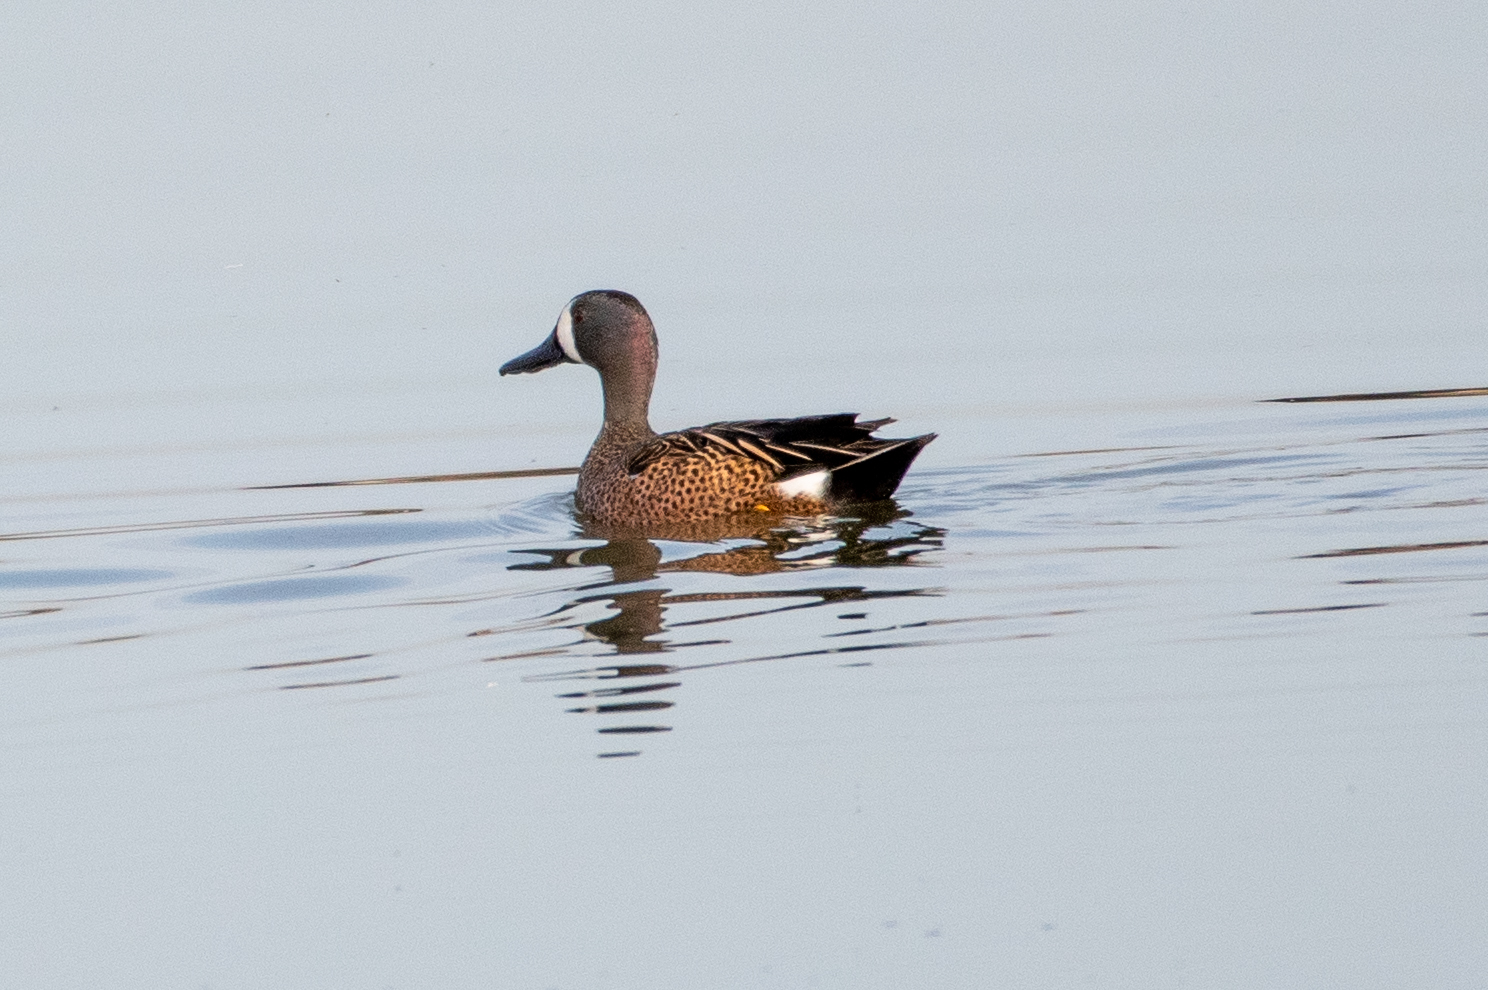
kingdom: Animalia
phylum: Chordata
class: Aves
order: Anseriformes
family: Anatidae
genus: Spatula
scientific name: Spatula discors
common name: Blue-winged teal
